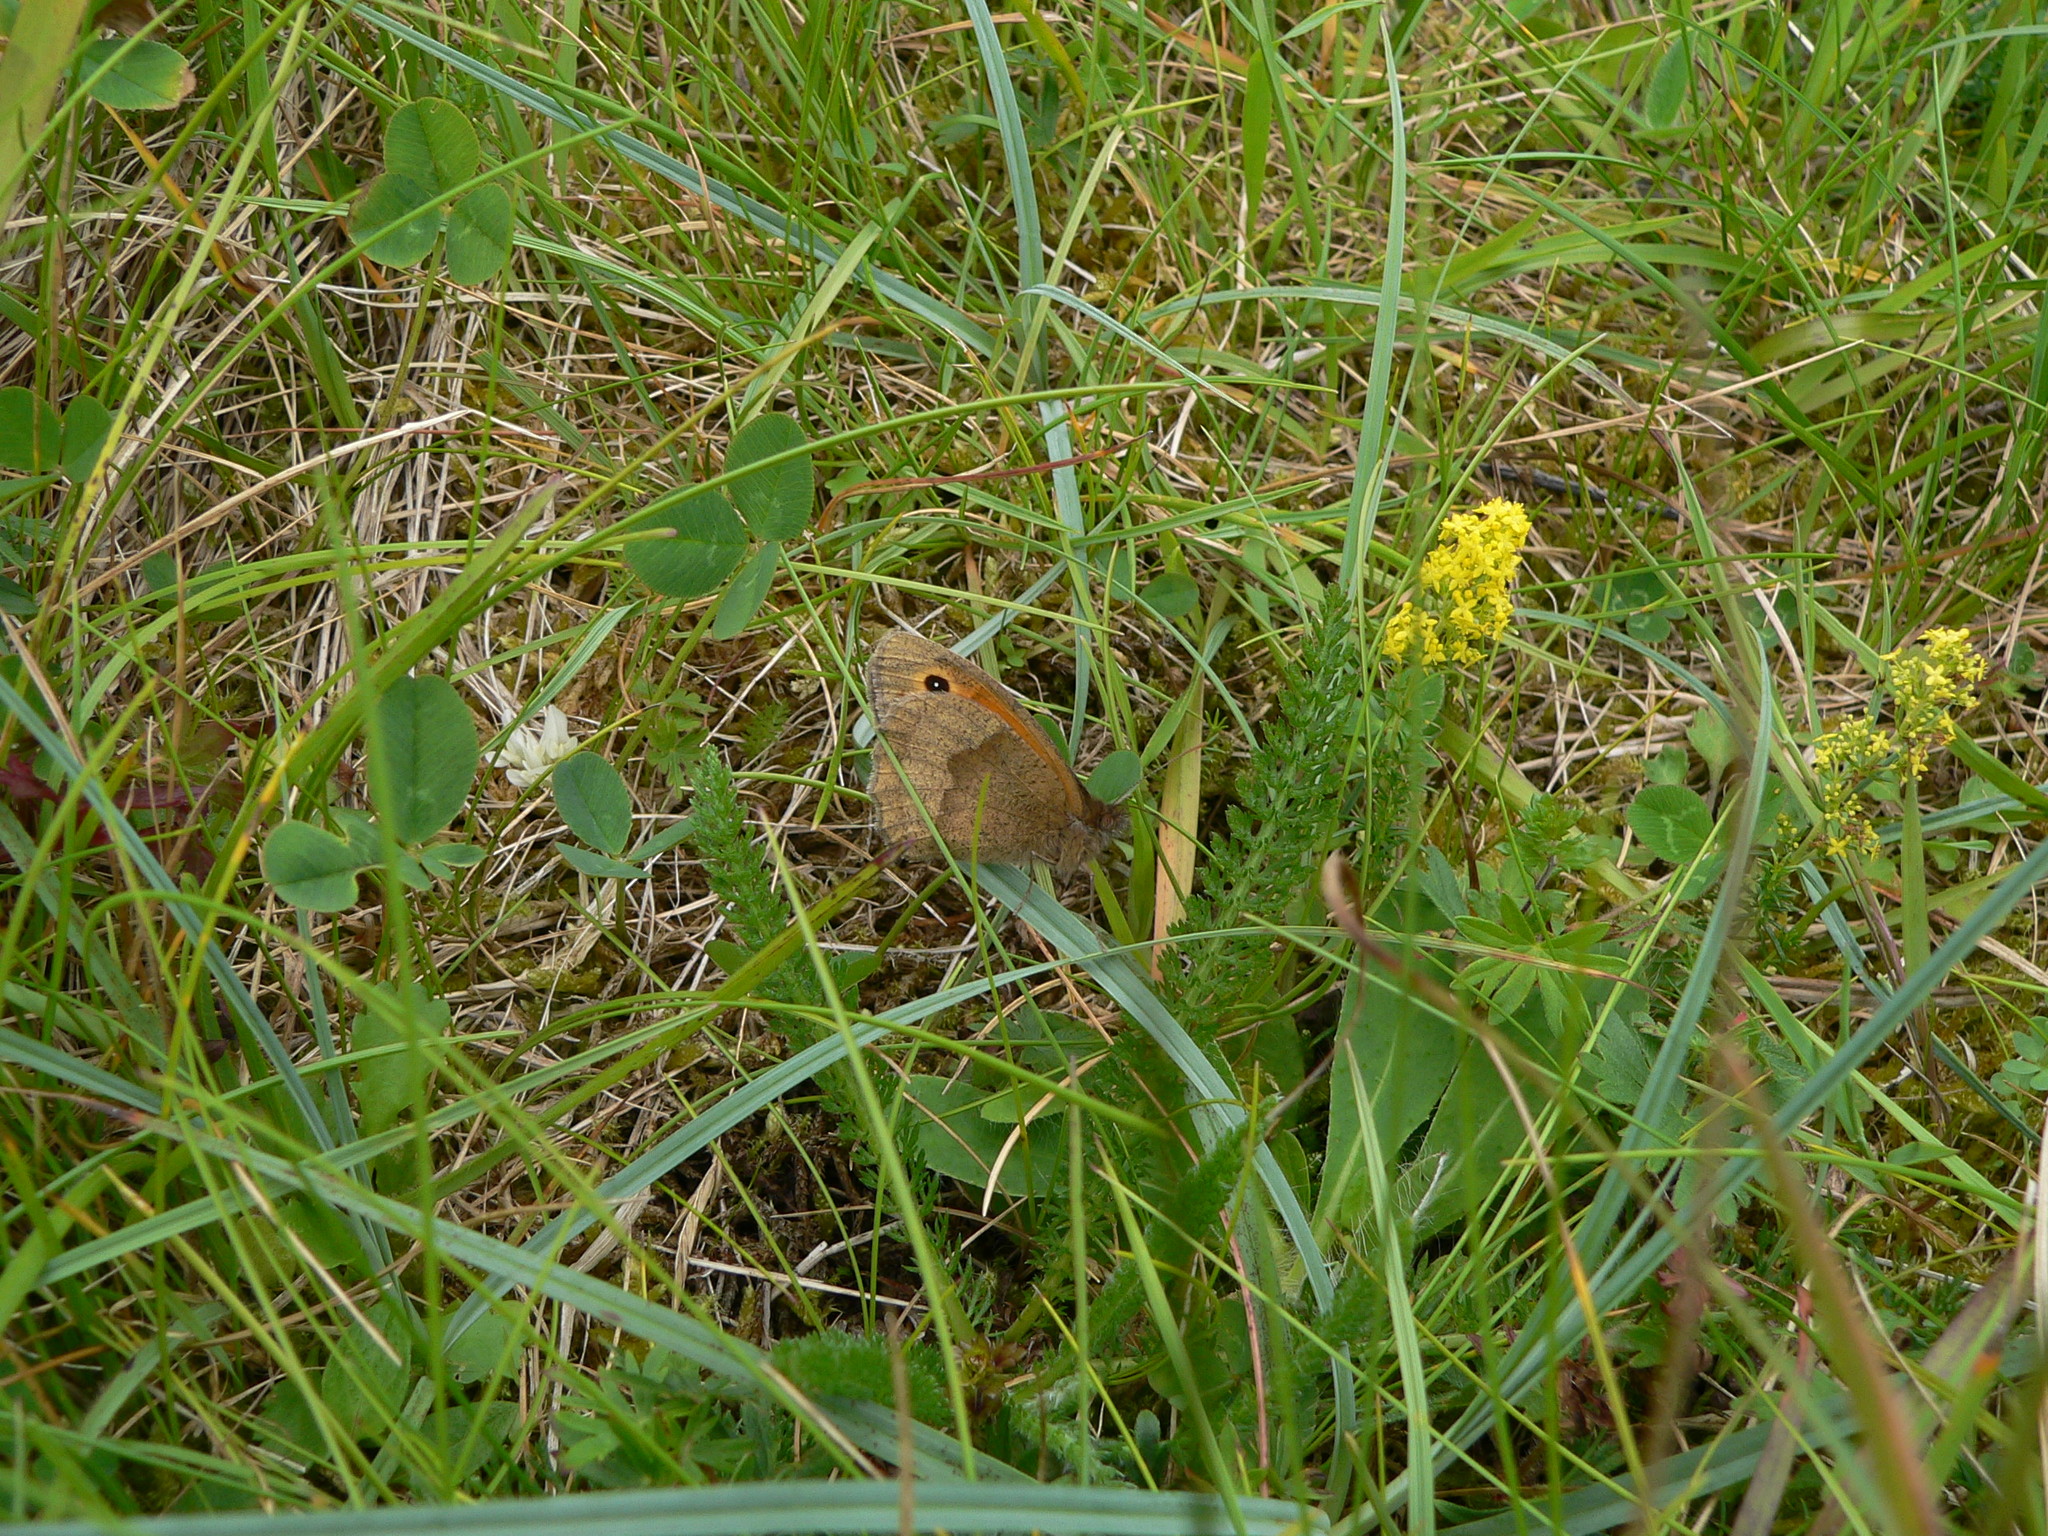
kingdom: Animalia
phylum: Arthropoda
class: Insecta
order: Lepidoptera
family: Nymphalidae
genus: Maniola
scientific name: Maniola jurtina
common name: Meadow brown
